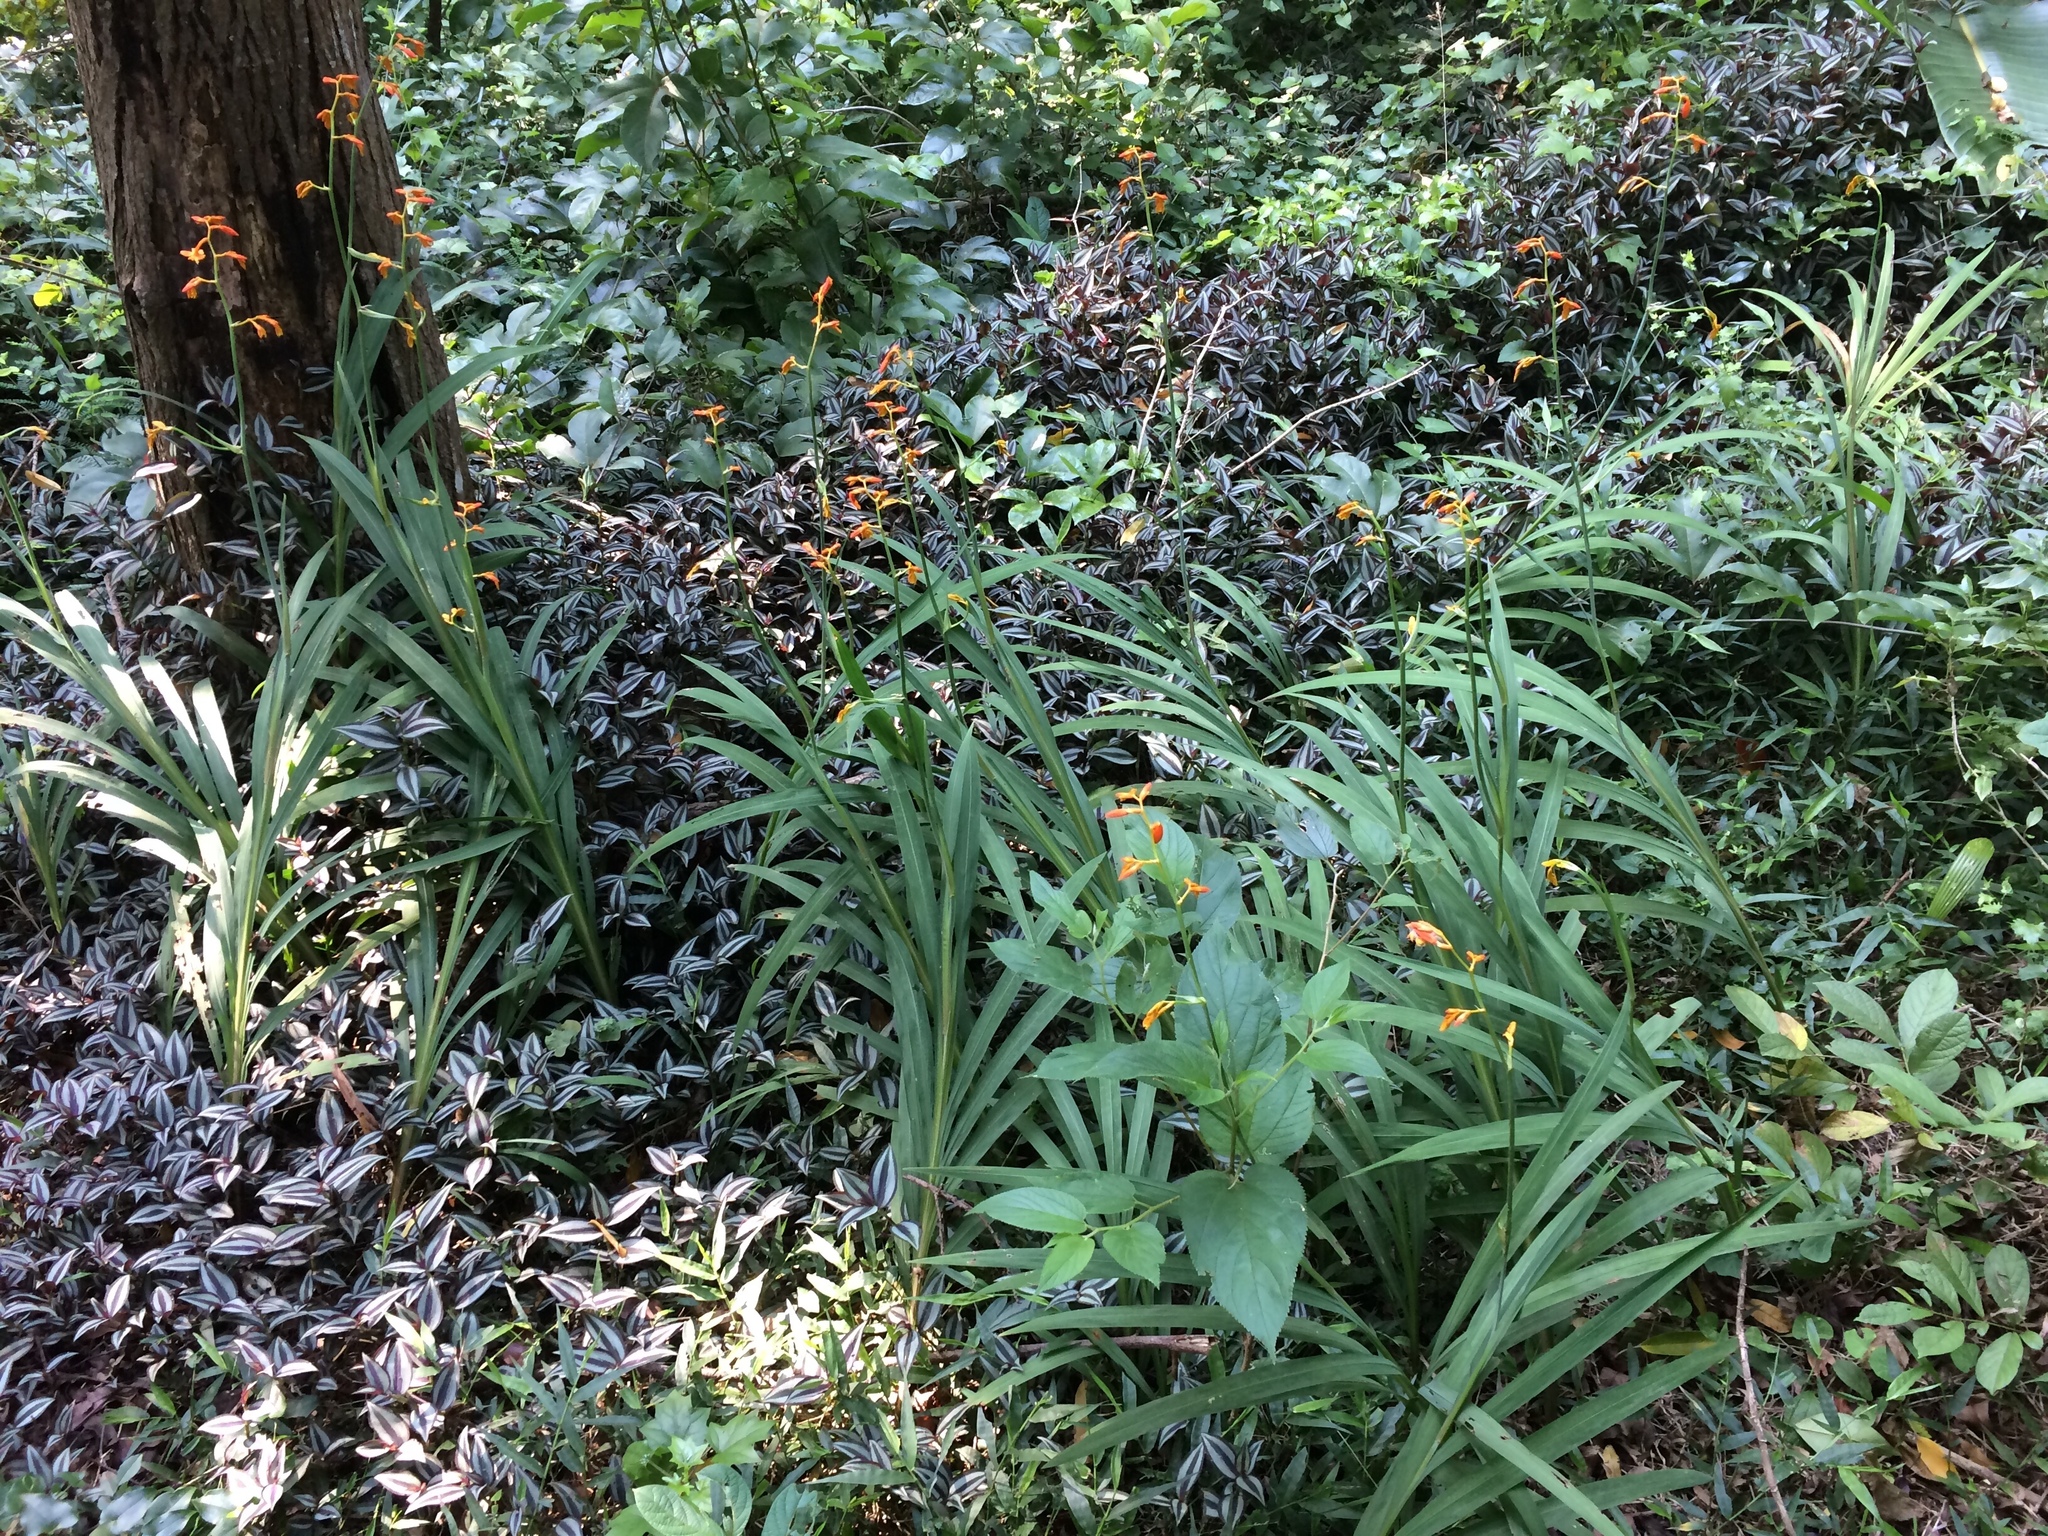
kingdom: Plantae
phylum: Tracheophyta
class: Liliopsida
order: Asparagales
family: Iridaceae
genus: Crocosmia
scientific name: Crocosmia aurea
